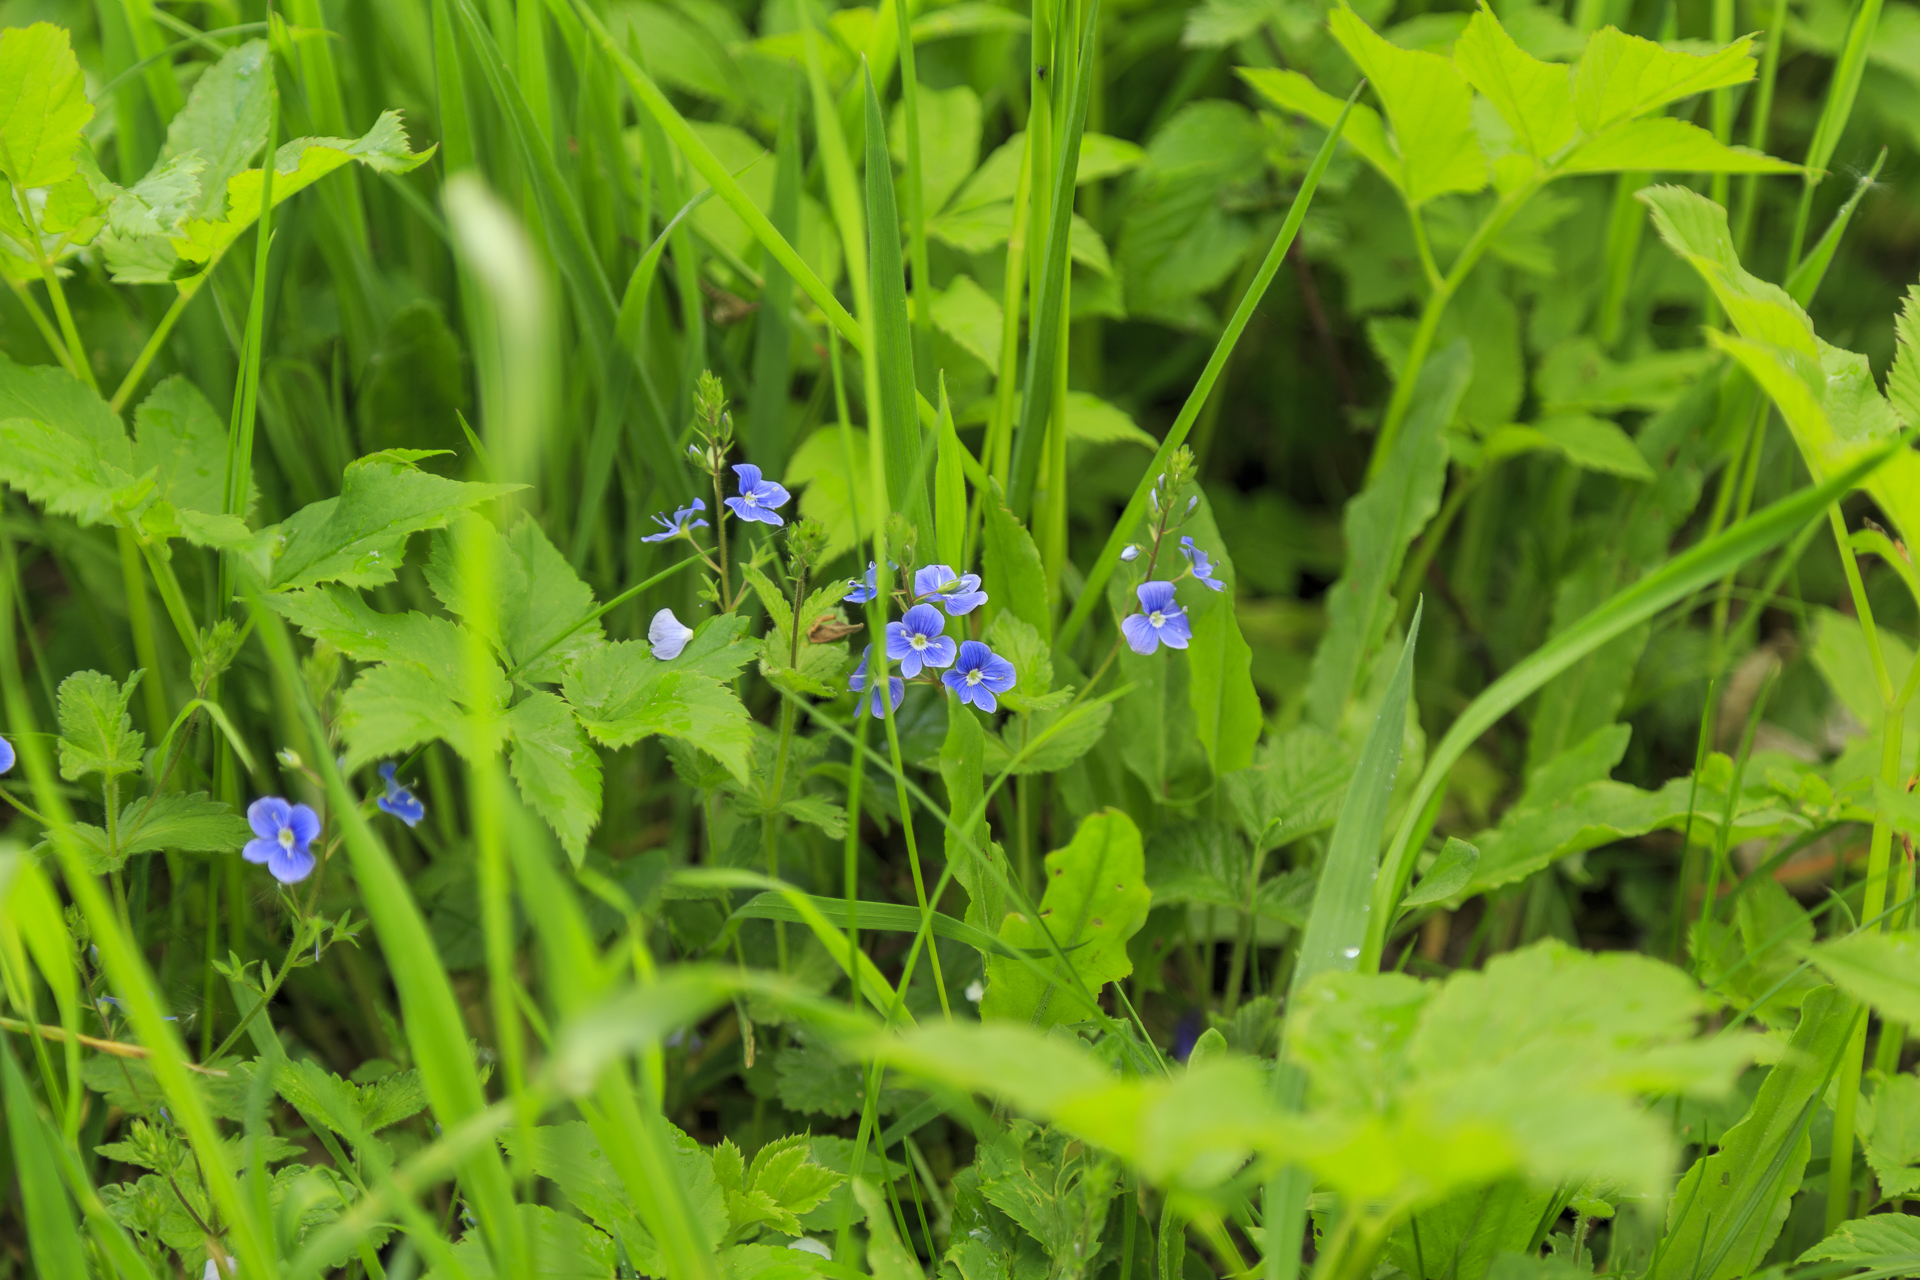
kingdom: Plantae
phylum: Tracheophyta
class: Magnoliopsida
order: Lamiales
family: Plantaginaceae
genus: Veronica
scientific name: Veronica chamaedrys
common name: Germander speedwell
